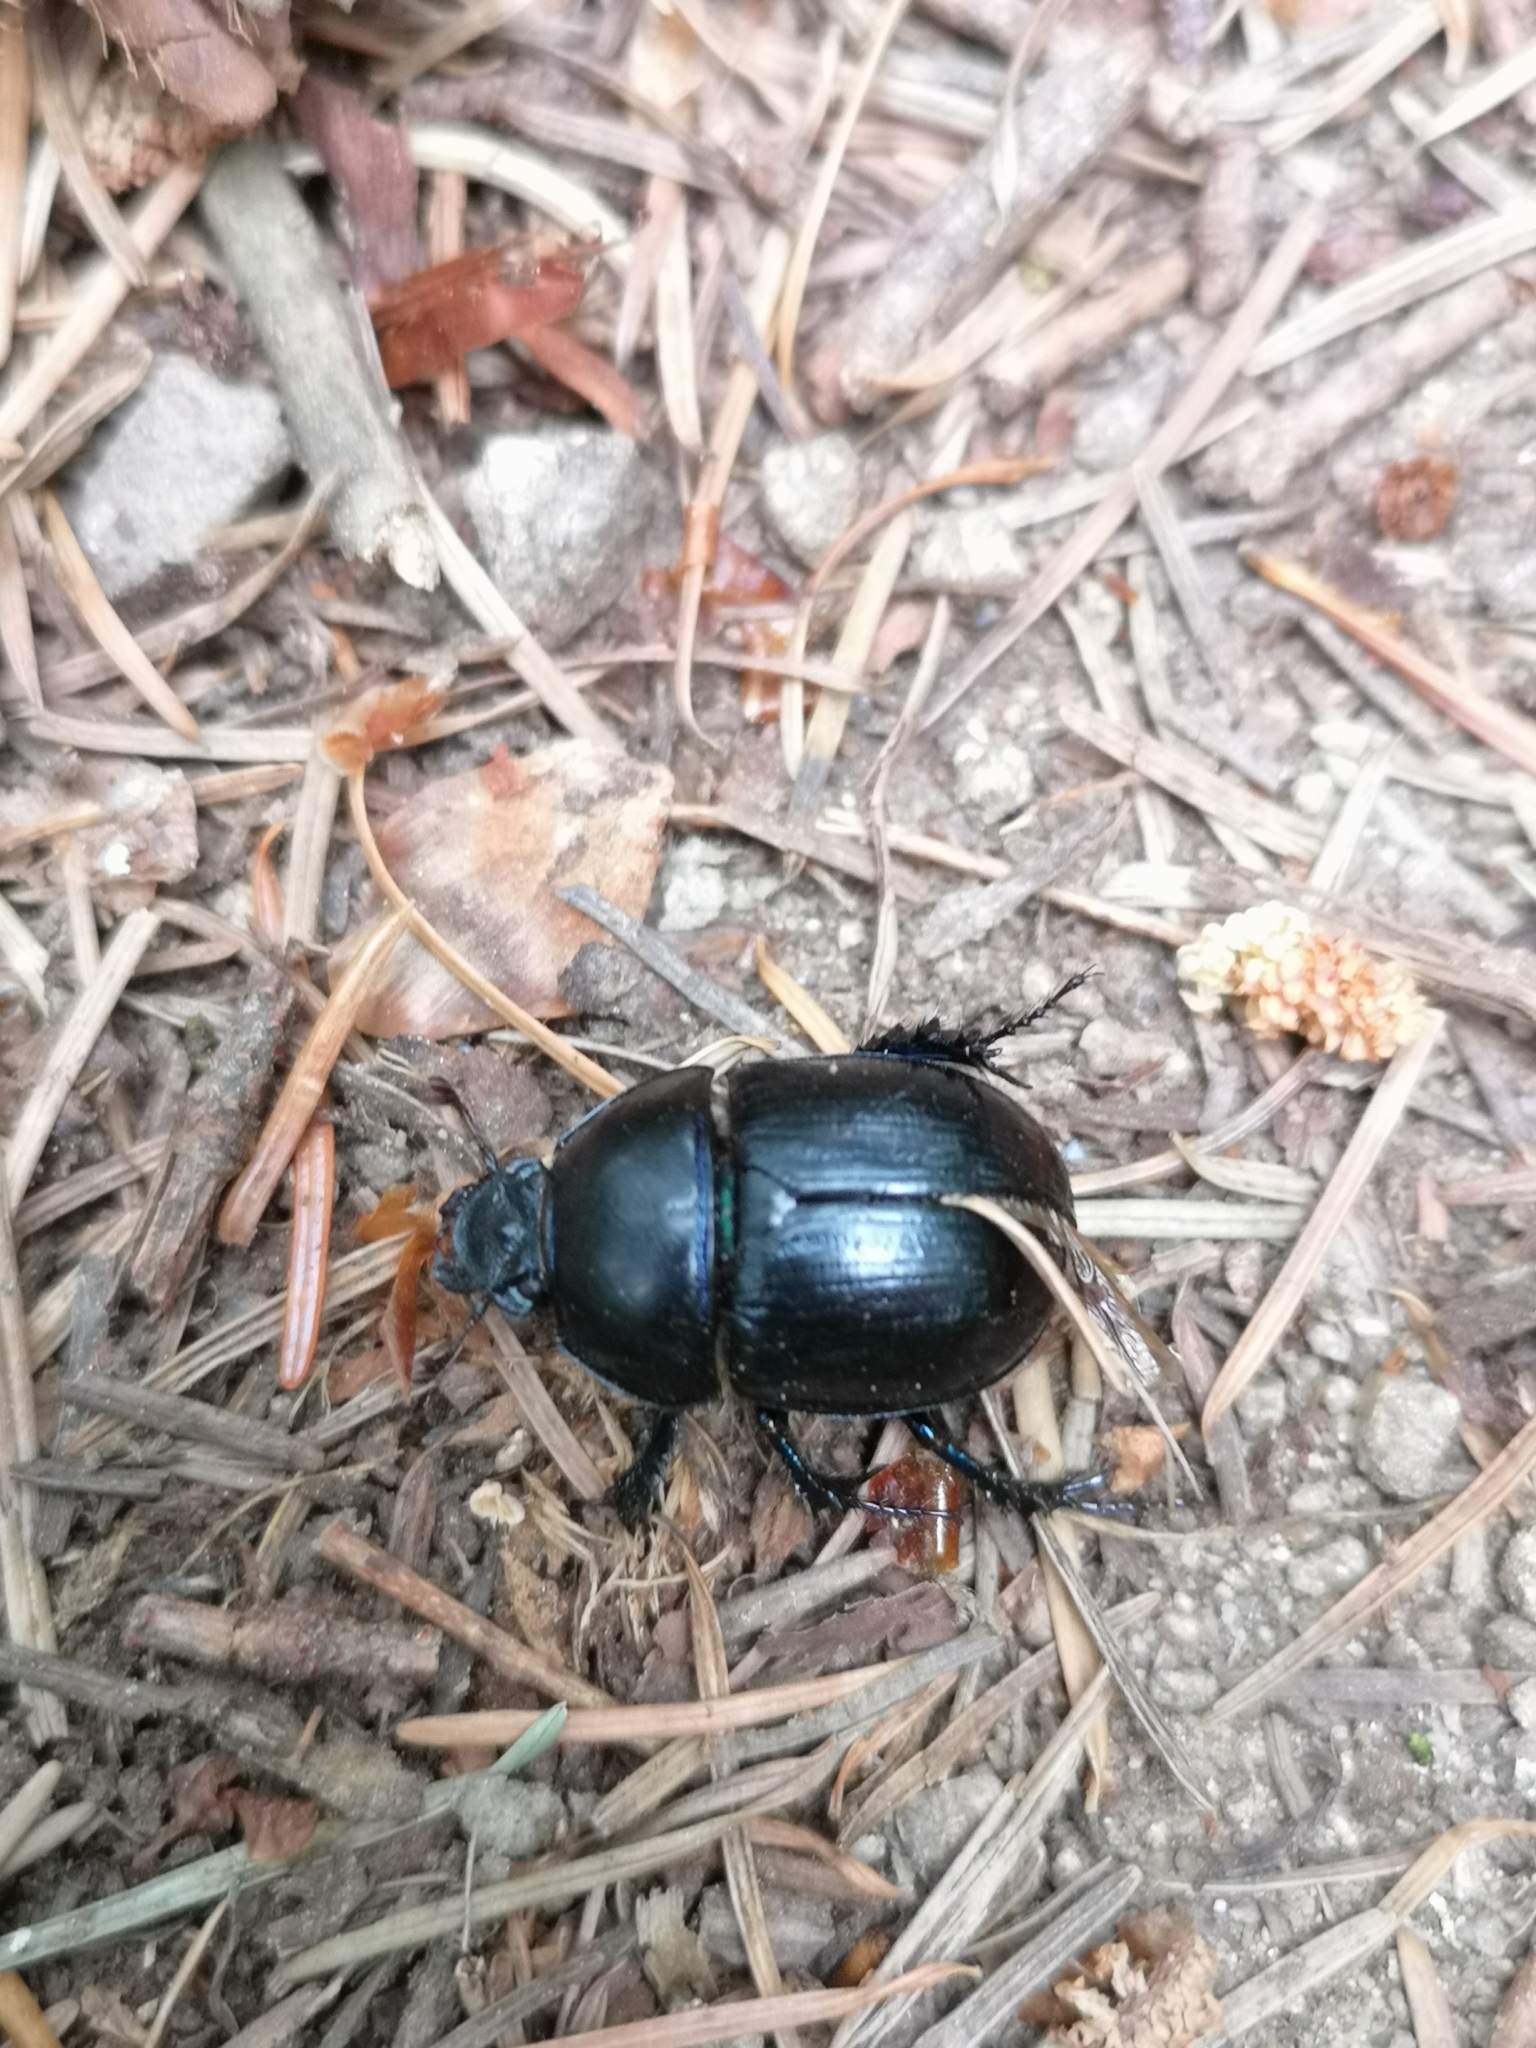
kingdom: Animalia
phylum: Arthropoda
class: Insecta
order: Coleoptera
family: Geotrupidae
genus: Anoplotrupes
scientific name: Anoplotrupes stercorosus
